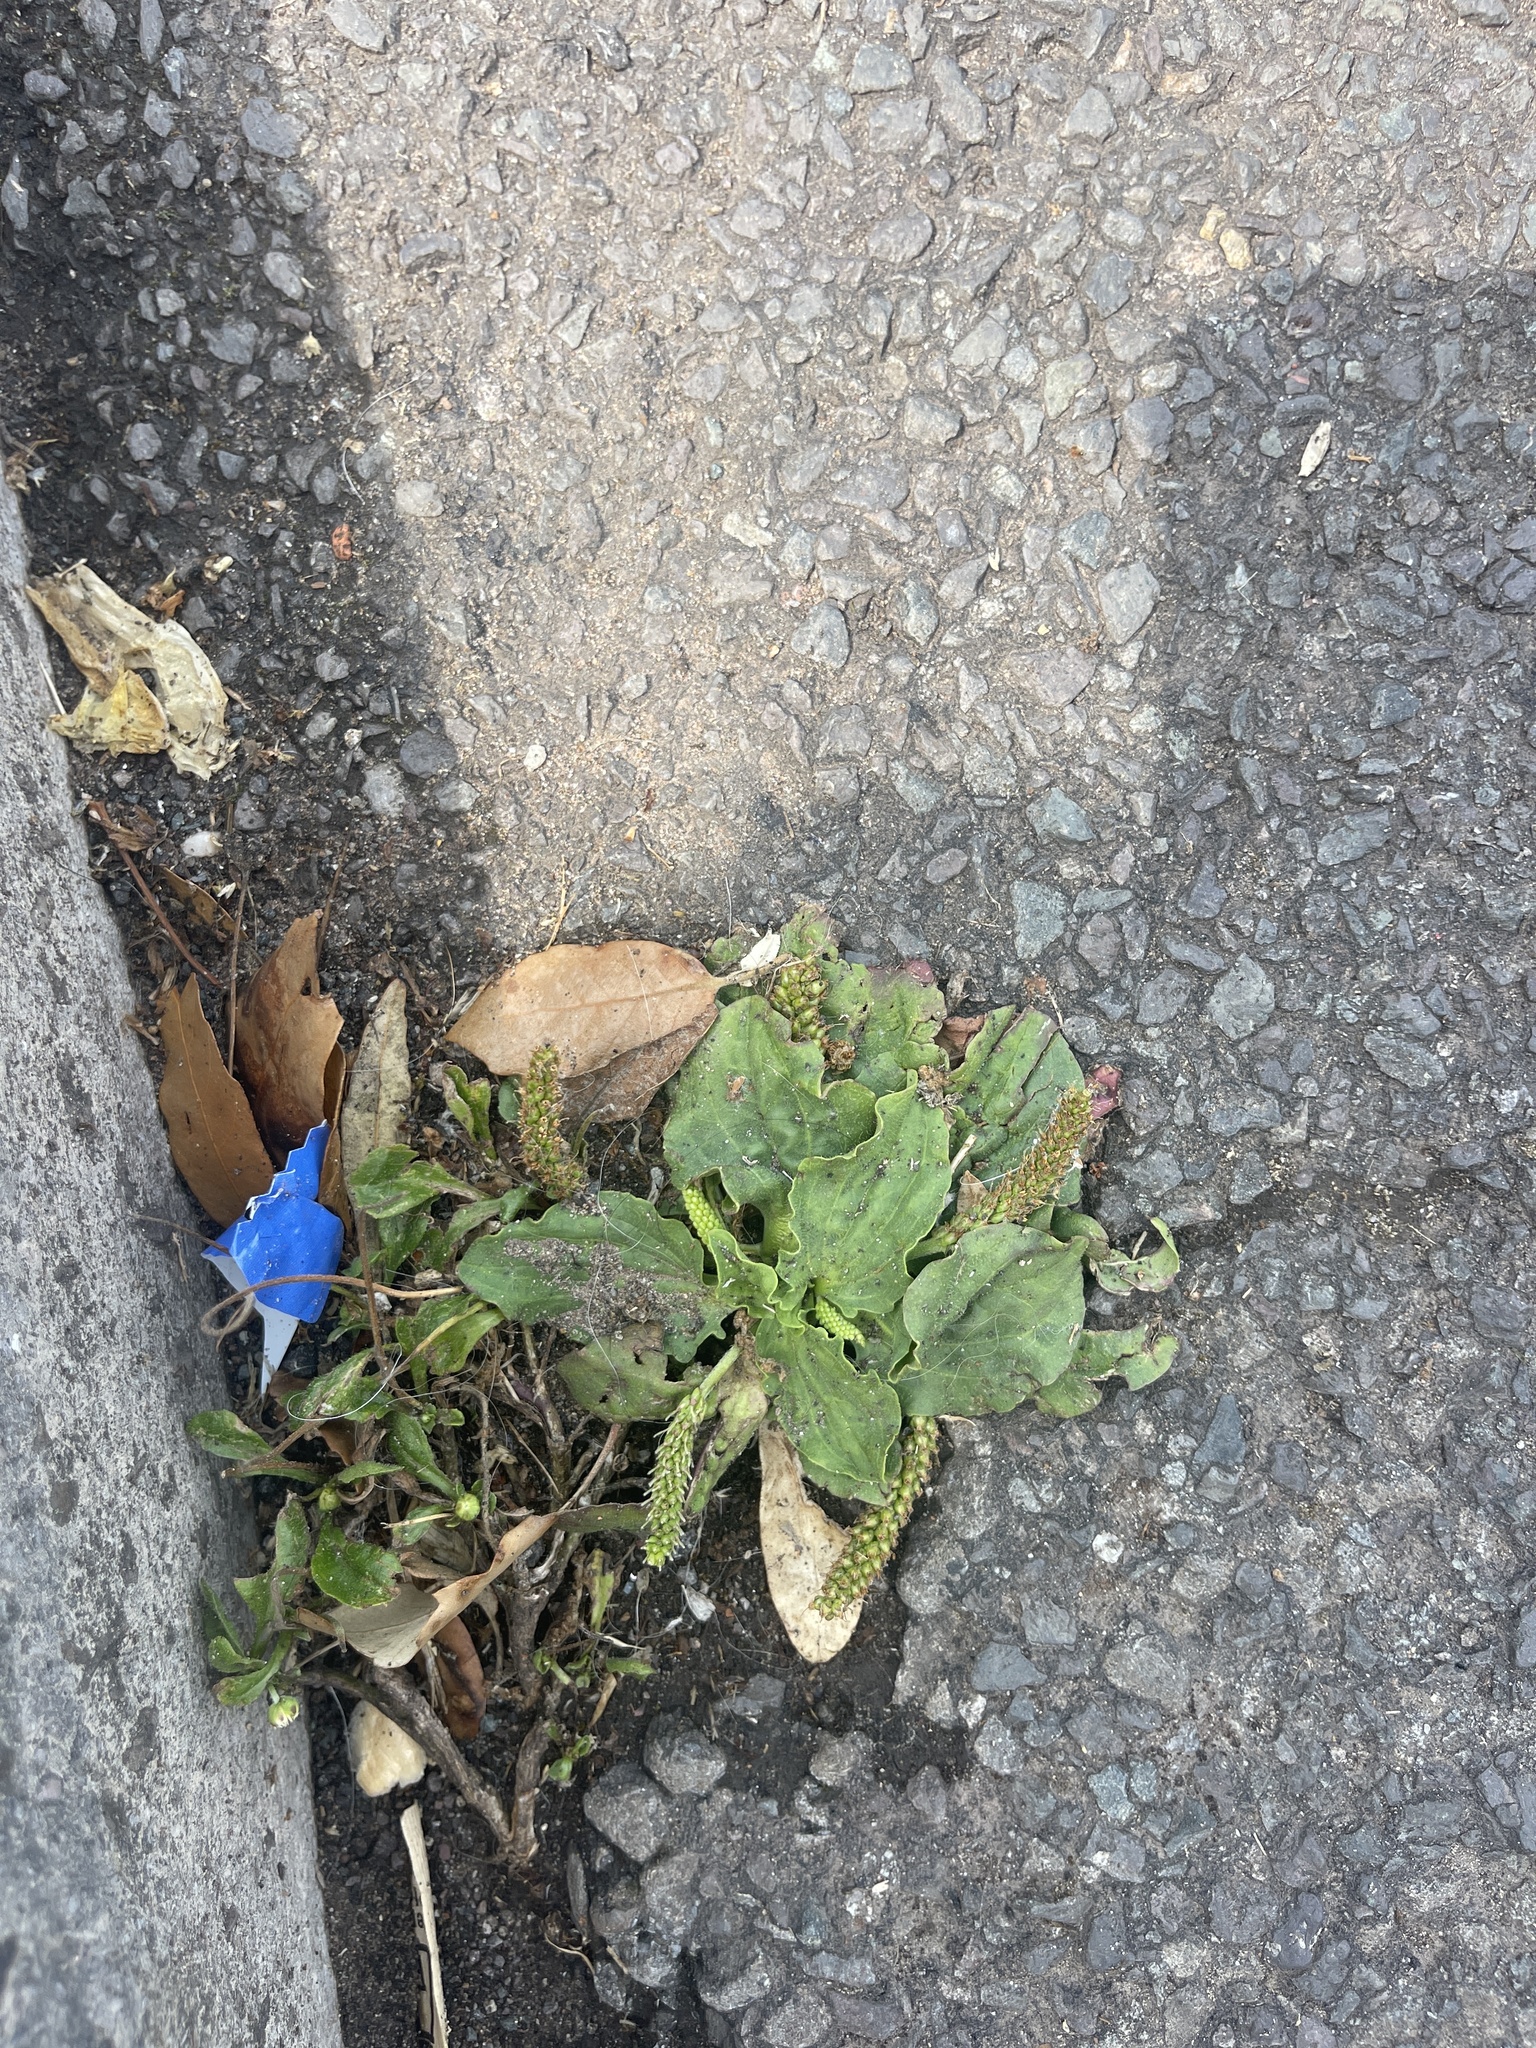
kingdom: Plantae
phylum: Tracheophyta
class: Magnoliopsida
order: Lamiales
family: Plantaginaceae
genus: Plantago
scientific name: Plantago major
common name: Common plantain
